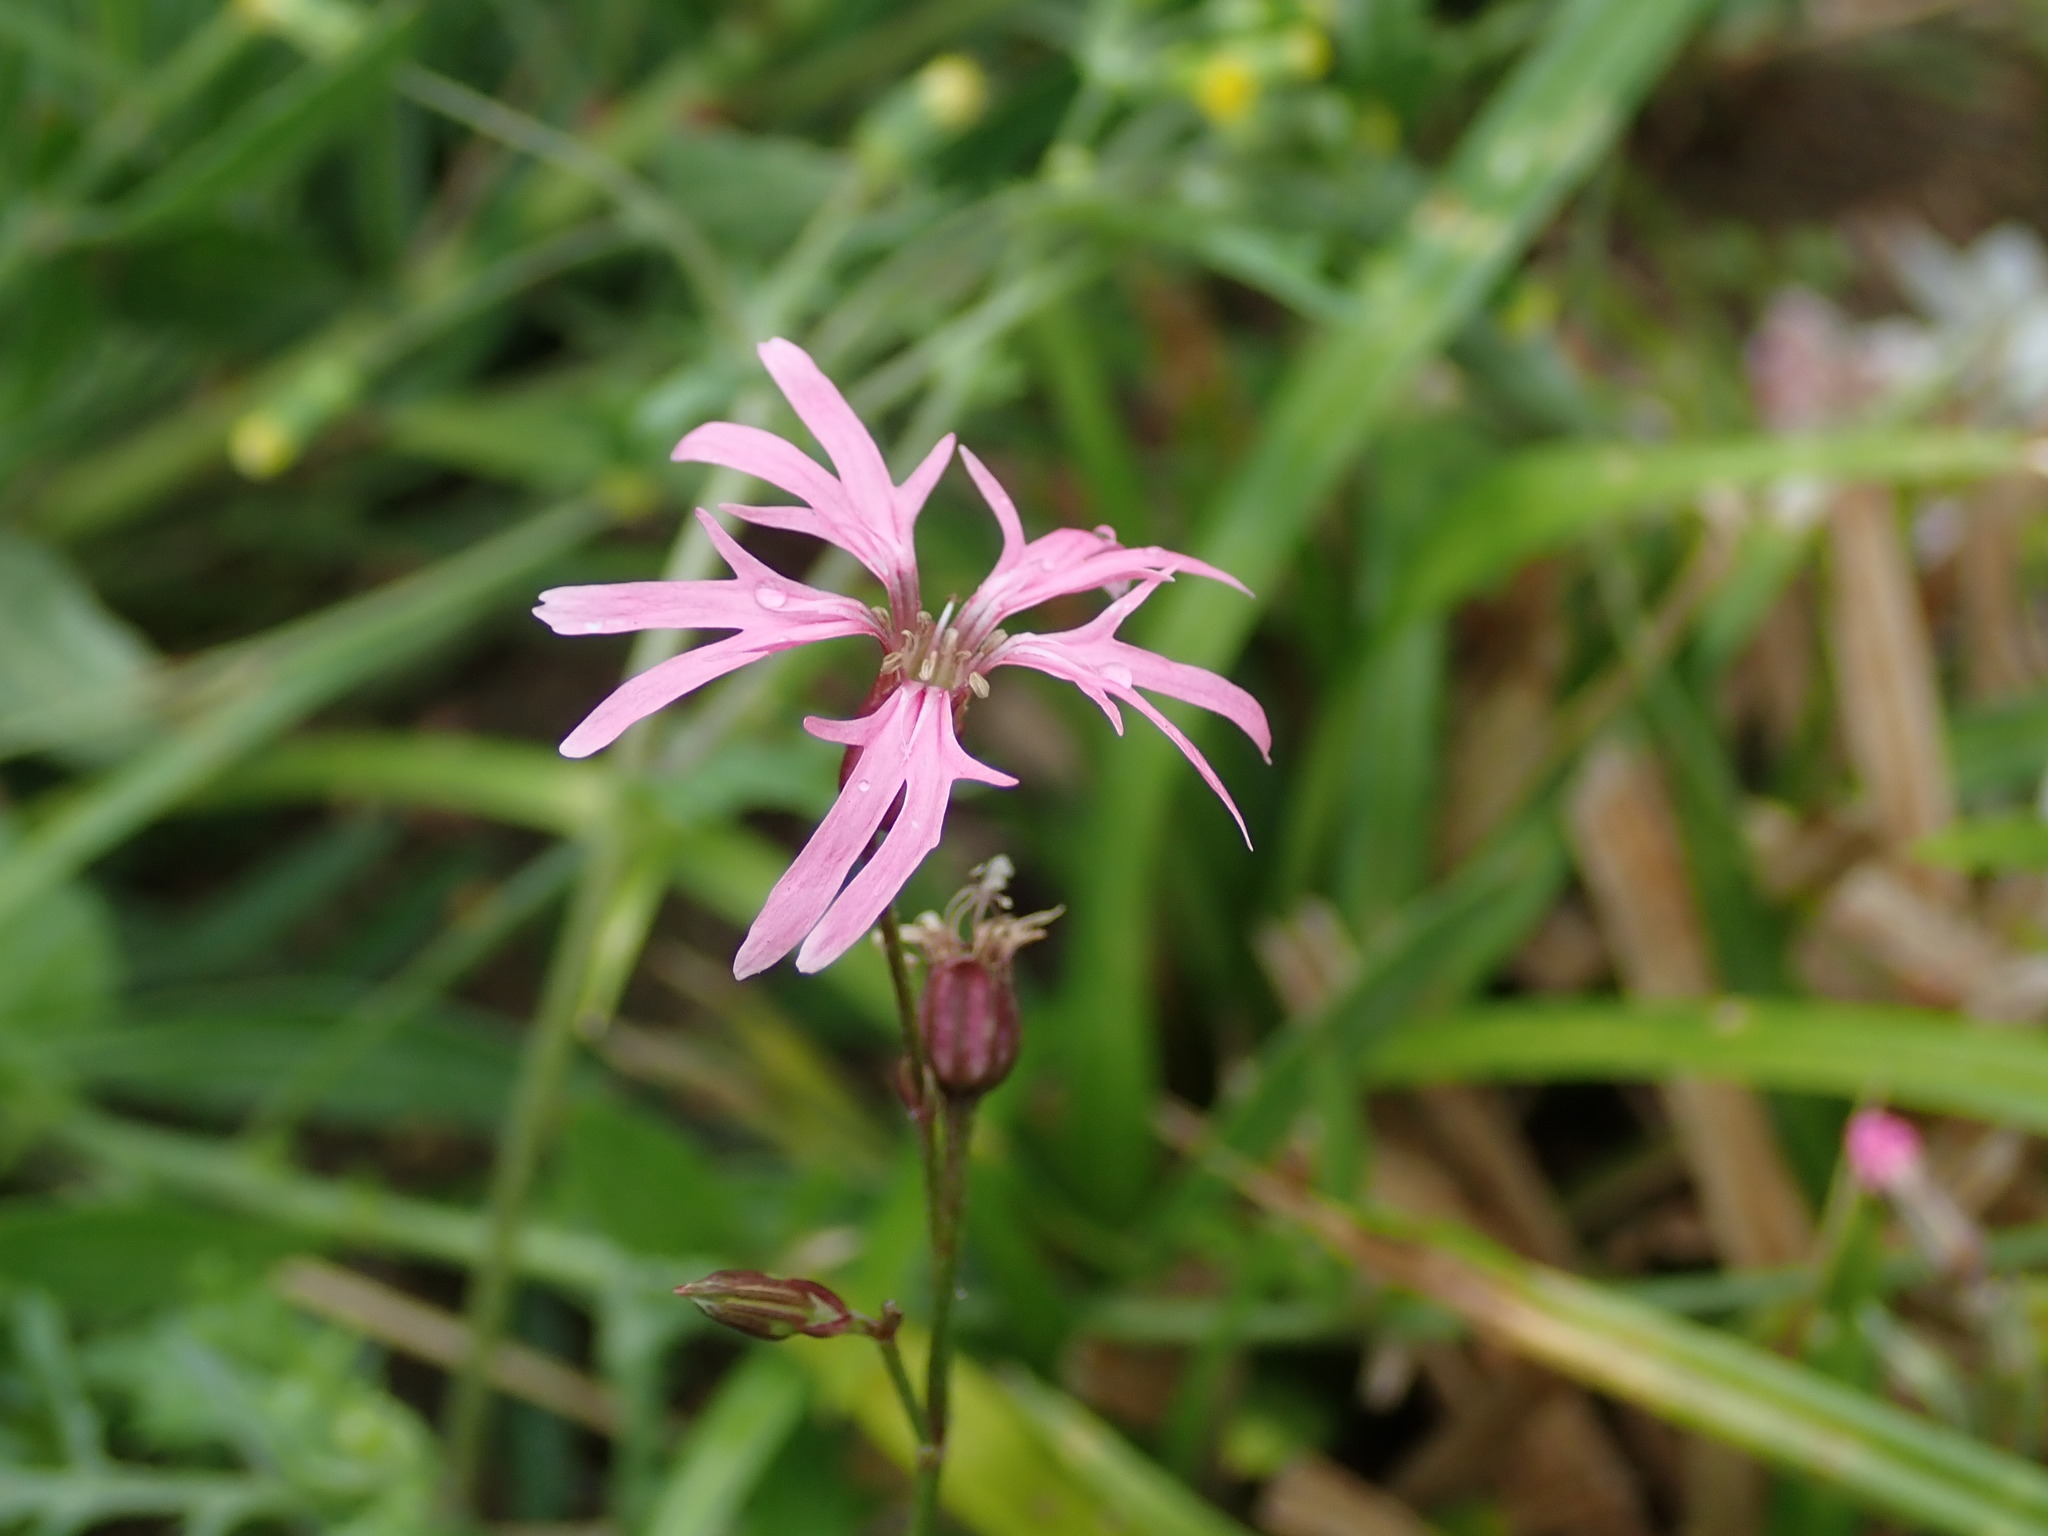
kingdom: Plantae
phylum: Tracheophyta
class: Magnoliopsida
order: Caryophyllales
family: Caryophyllaceae
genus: Silene
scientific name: Silene flos-cuculi
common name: Ragged-robin
